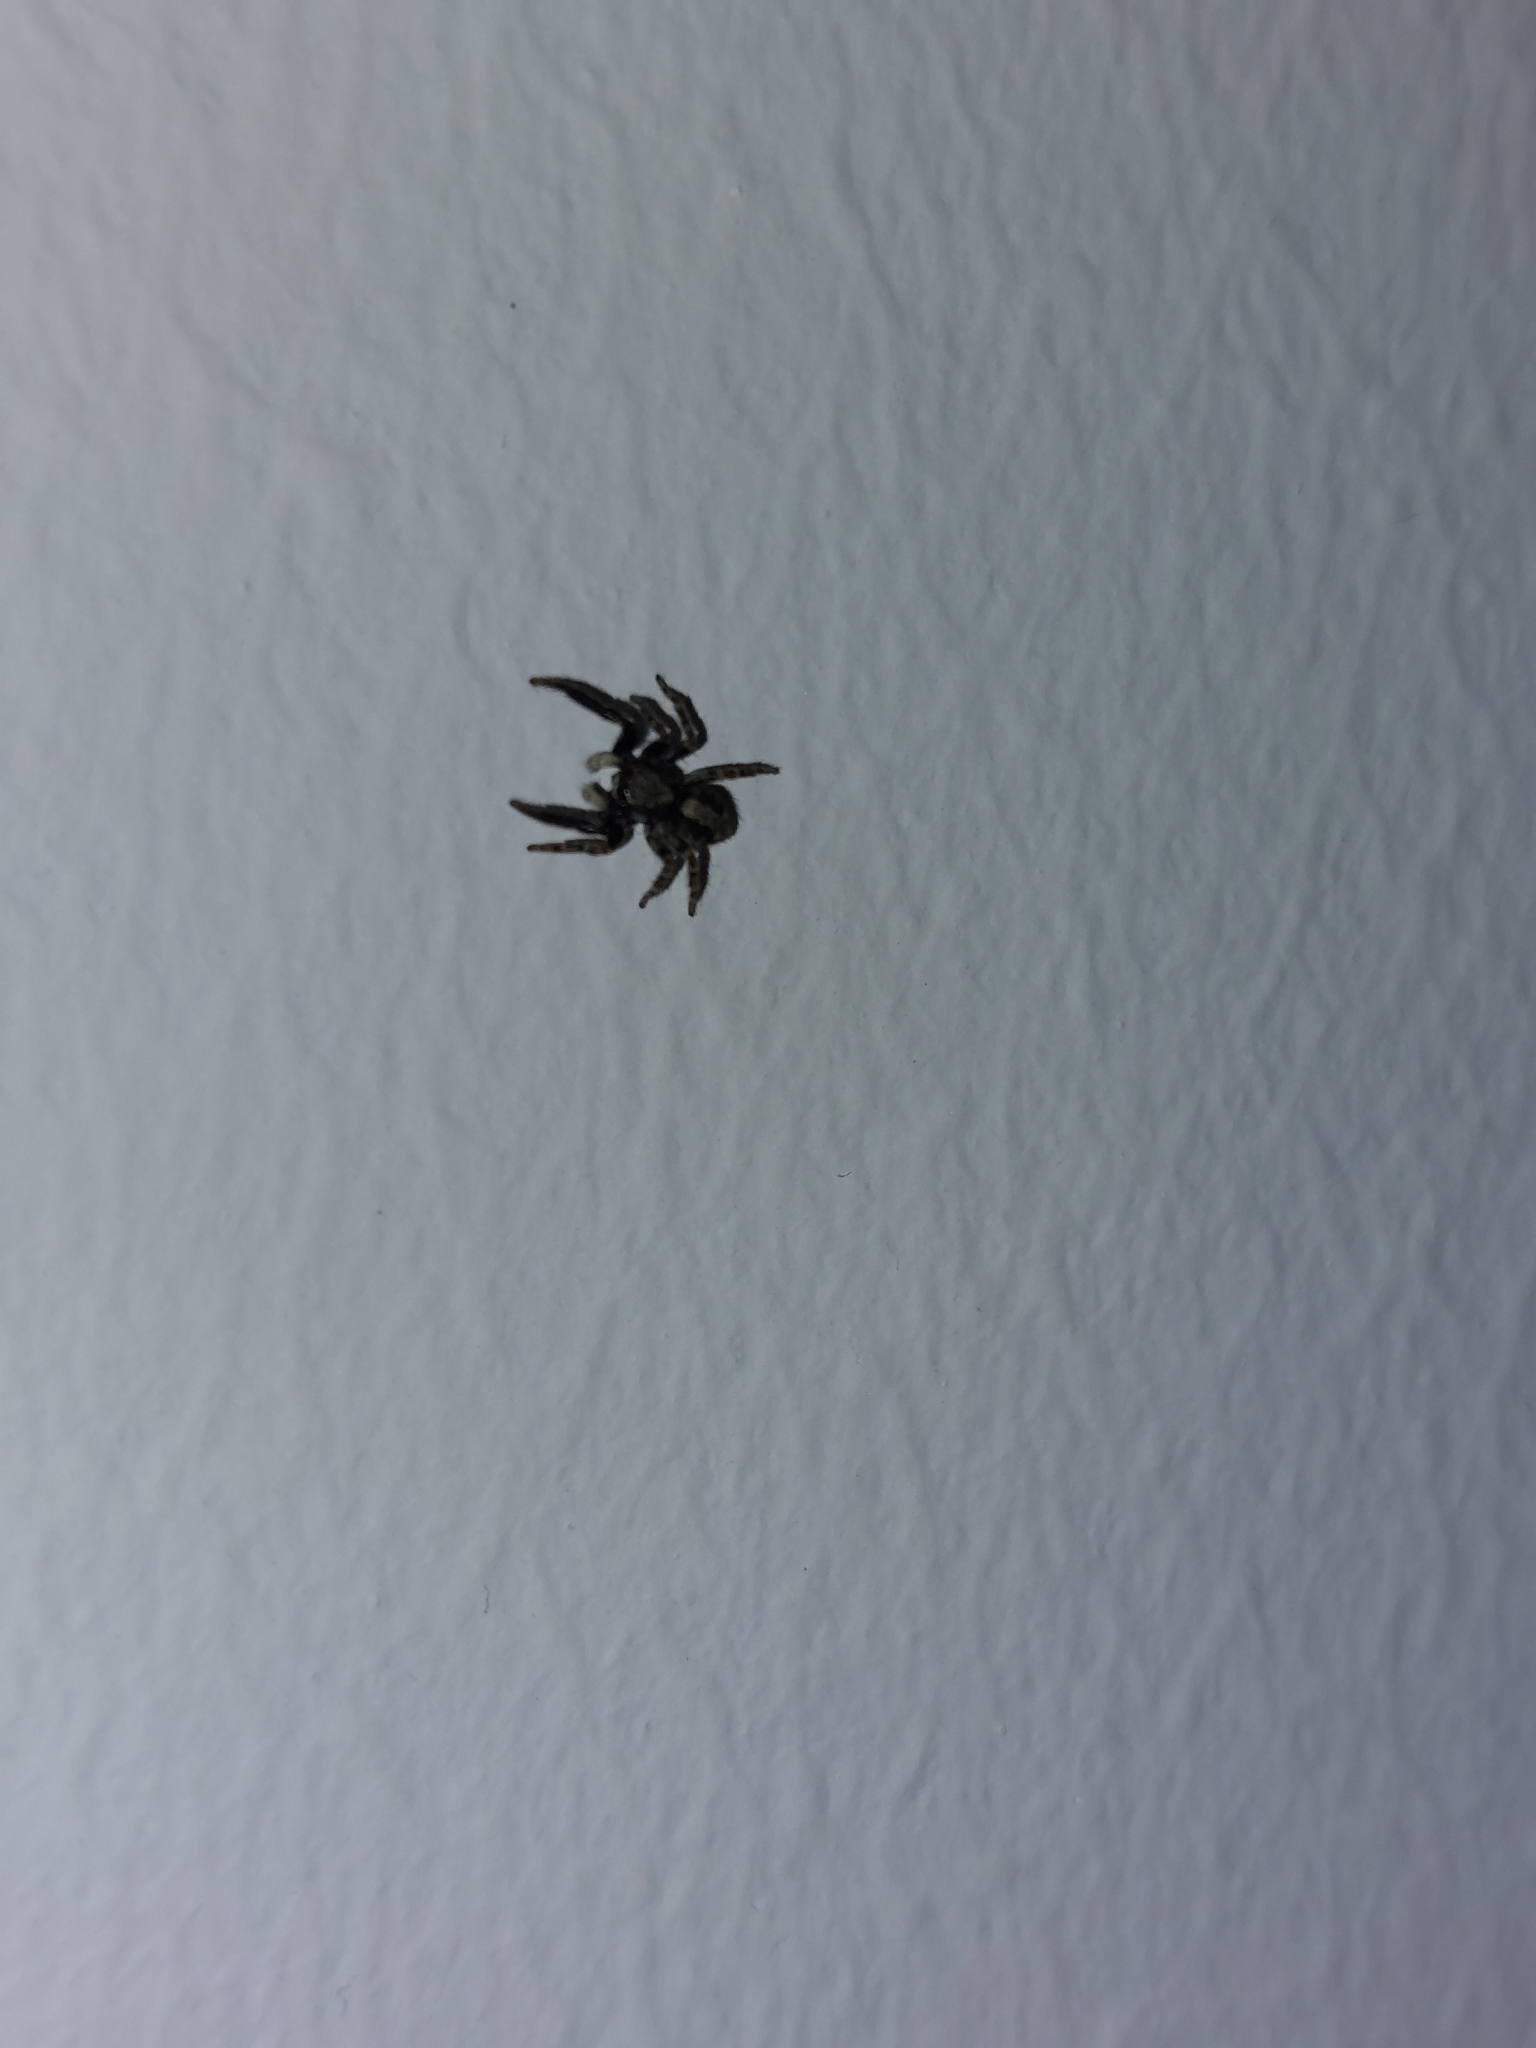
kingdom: Animalia
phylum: Arthropoda
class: Arachnida
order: Araneae
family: Salticidae
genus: Pseudeuophrys
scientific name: Pseudeuophrys lanigera
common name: Jumping spider
